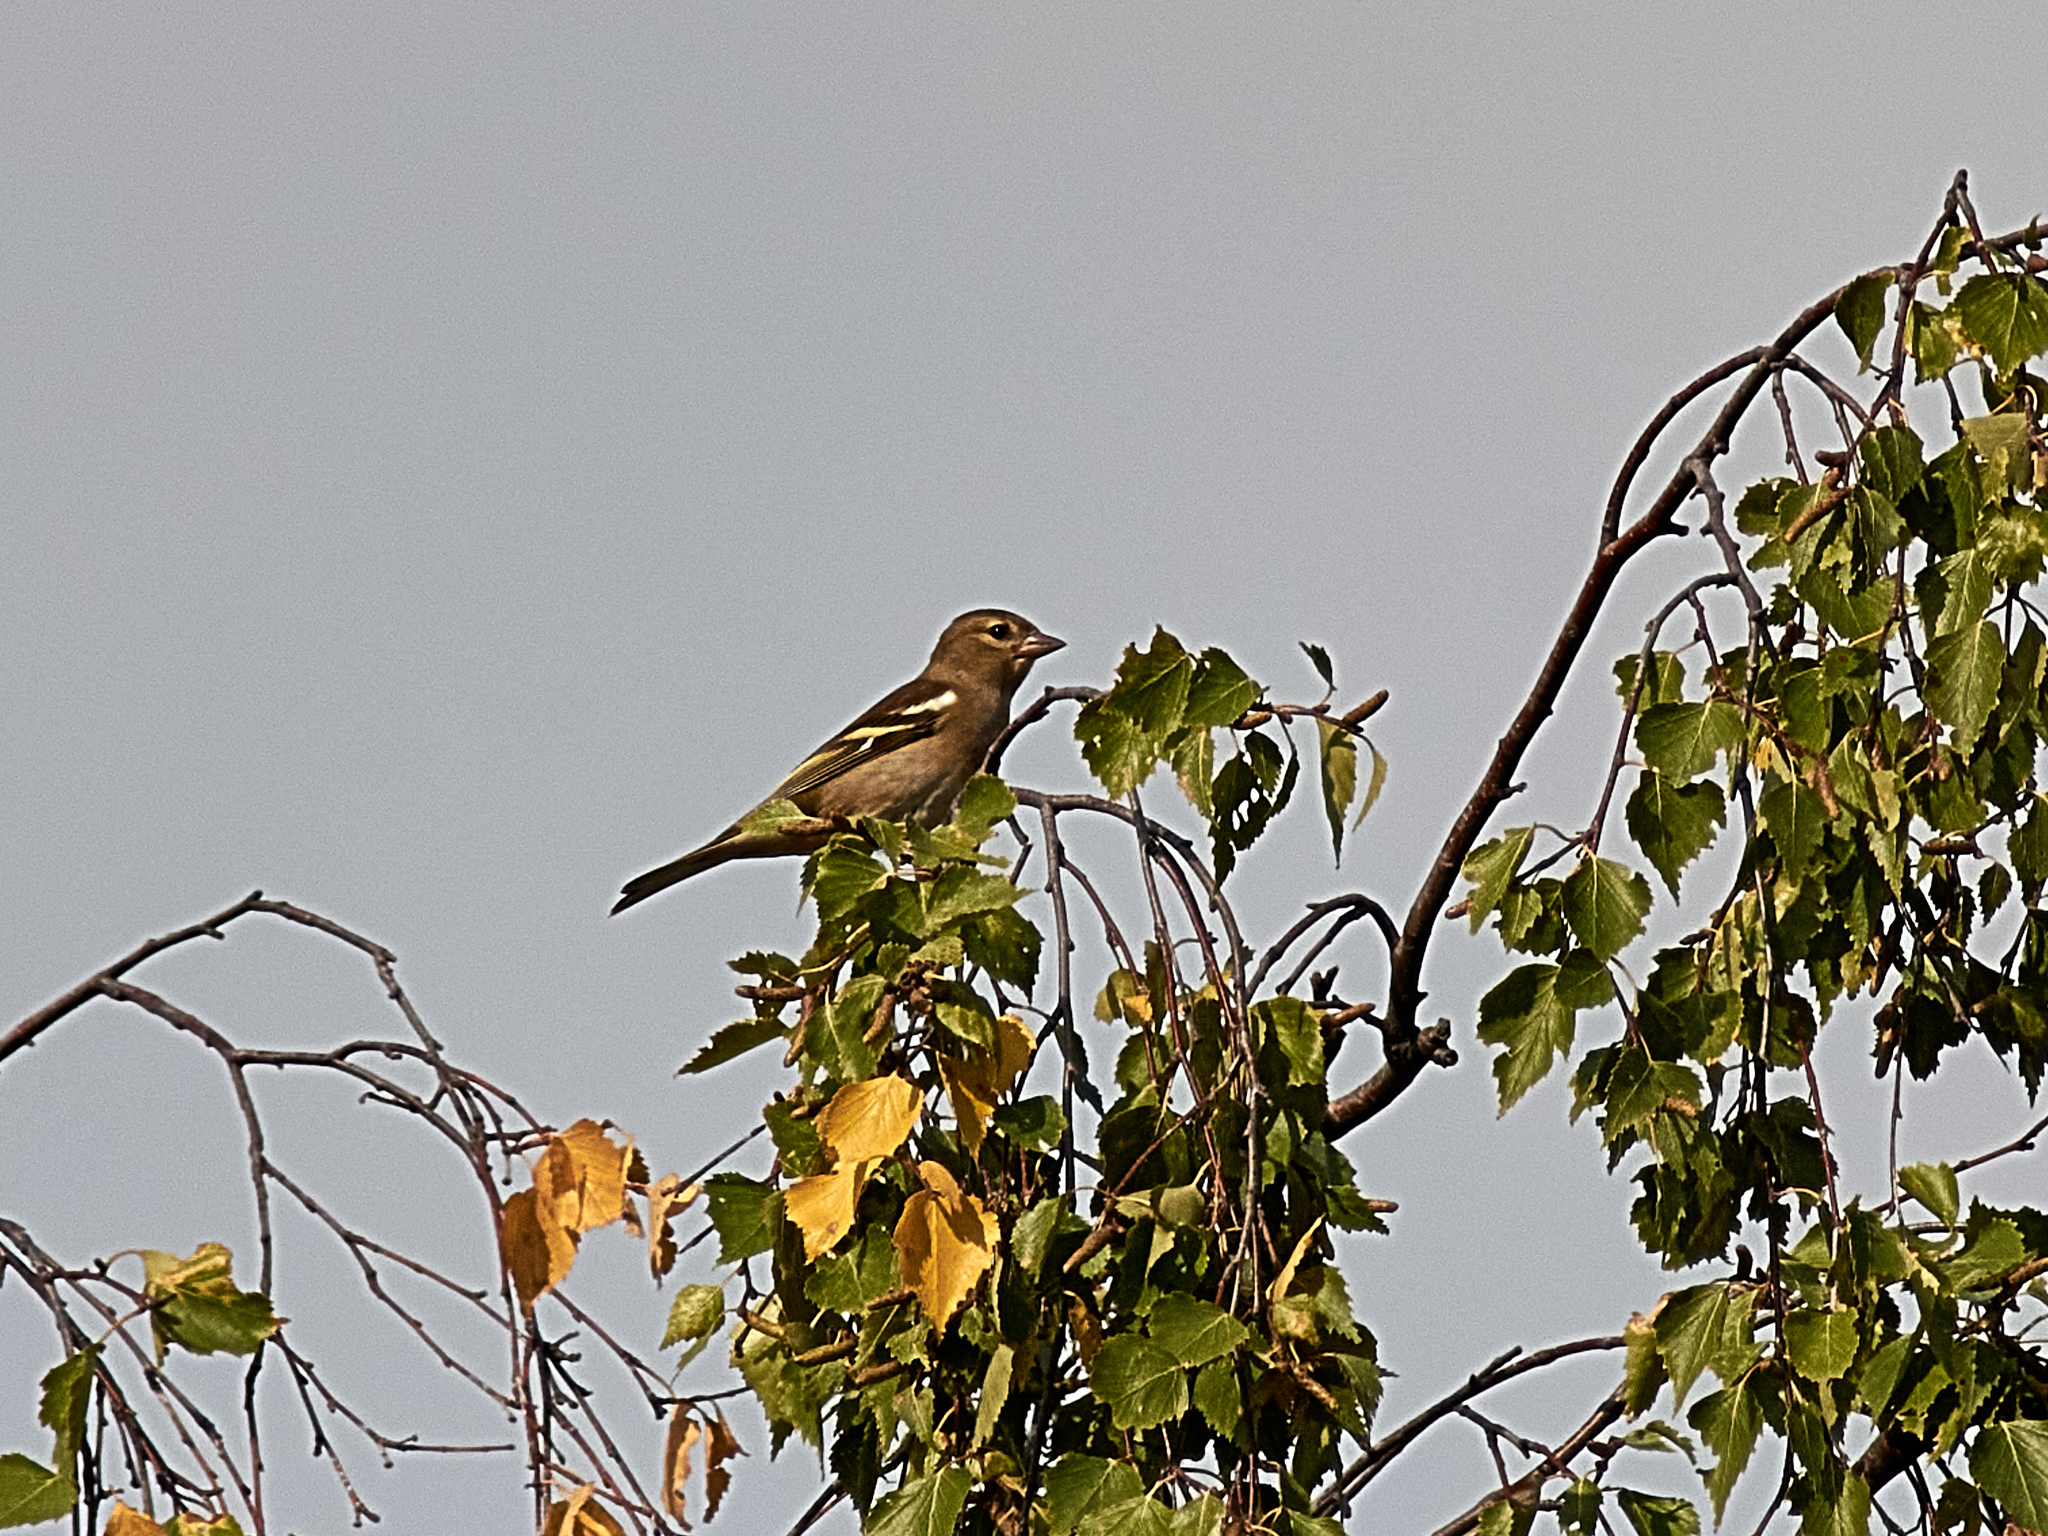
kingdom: Animalia
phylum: Chordata
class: Aves
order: Passeriformes
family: Fringillidae
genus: Fringilla
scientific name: Fringilla coelebs
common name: Common chaffinch
